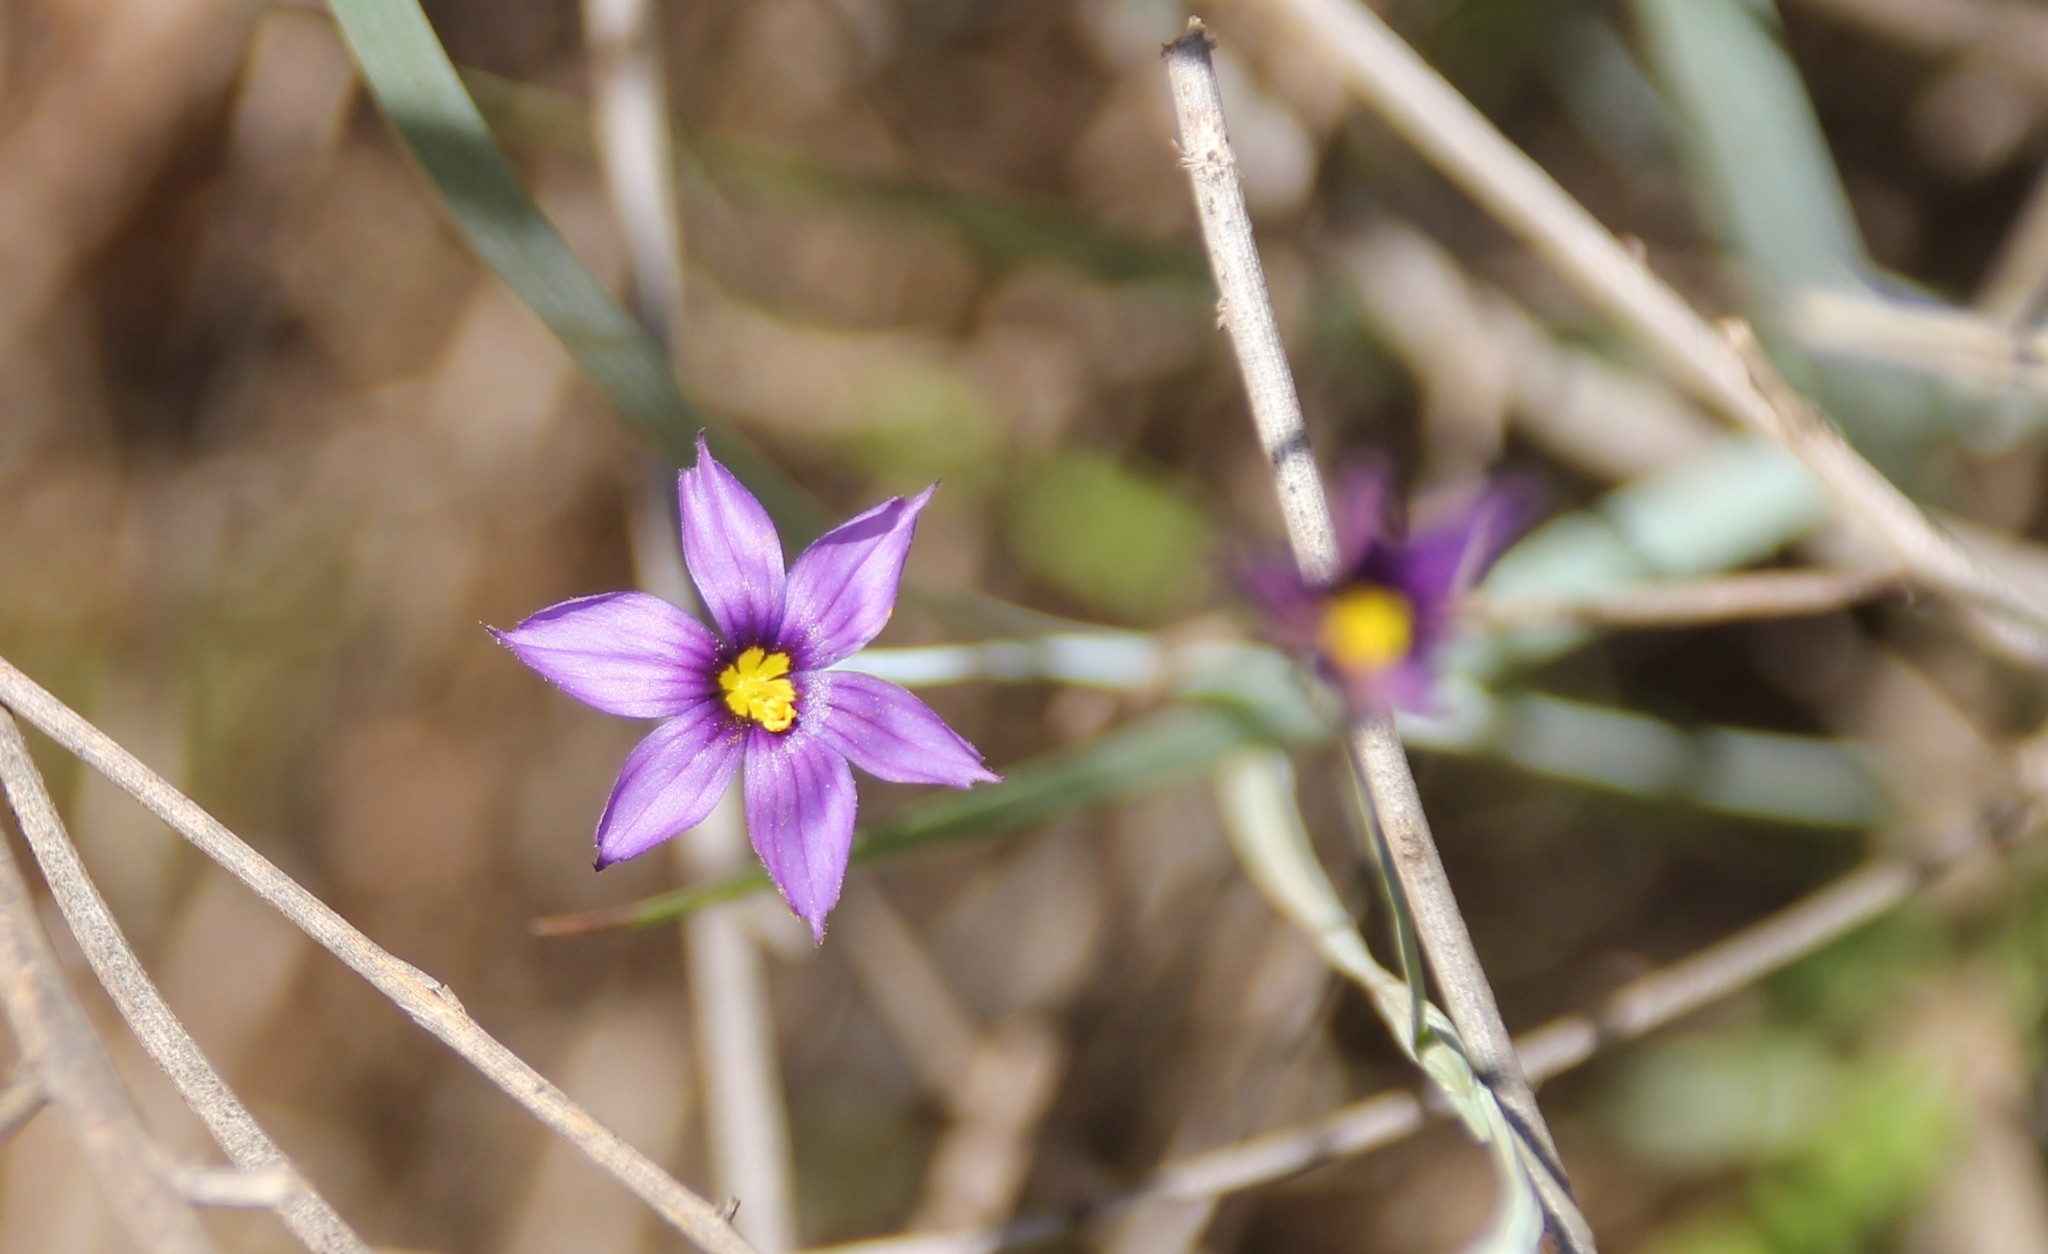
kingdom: Plantae
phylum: Tracheophyta
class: Liliopsida
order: Asparagales
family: Iridaceae
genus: Sisyrinchium
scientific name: Sisyrinchium bellum
